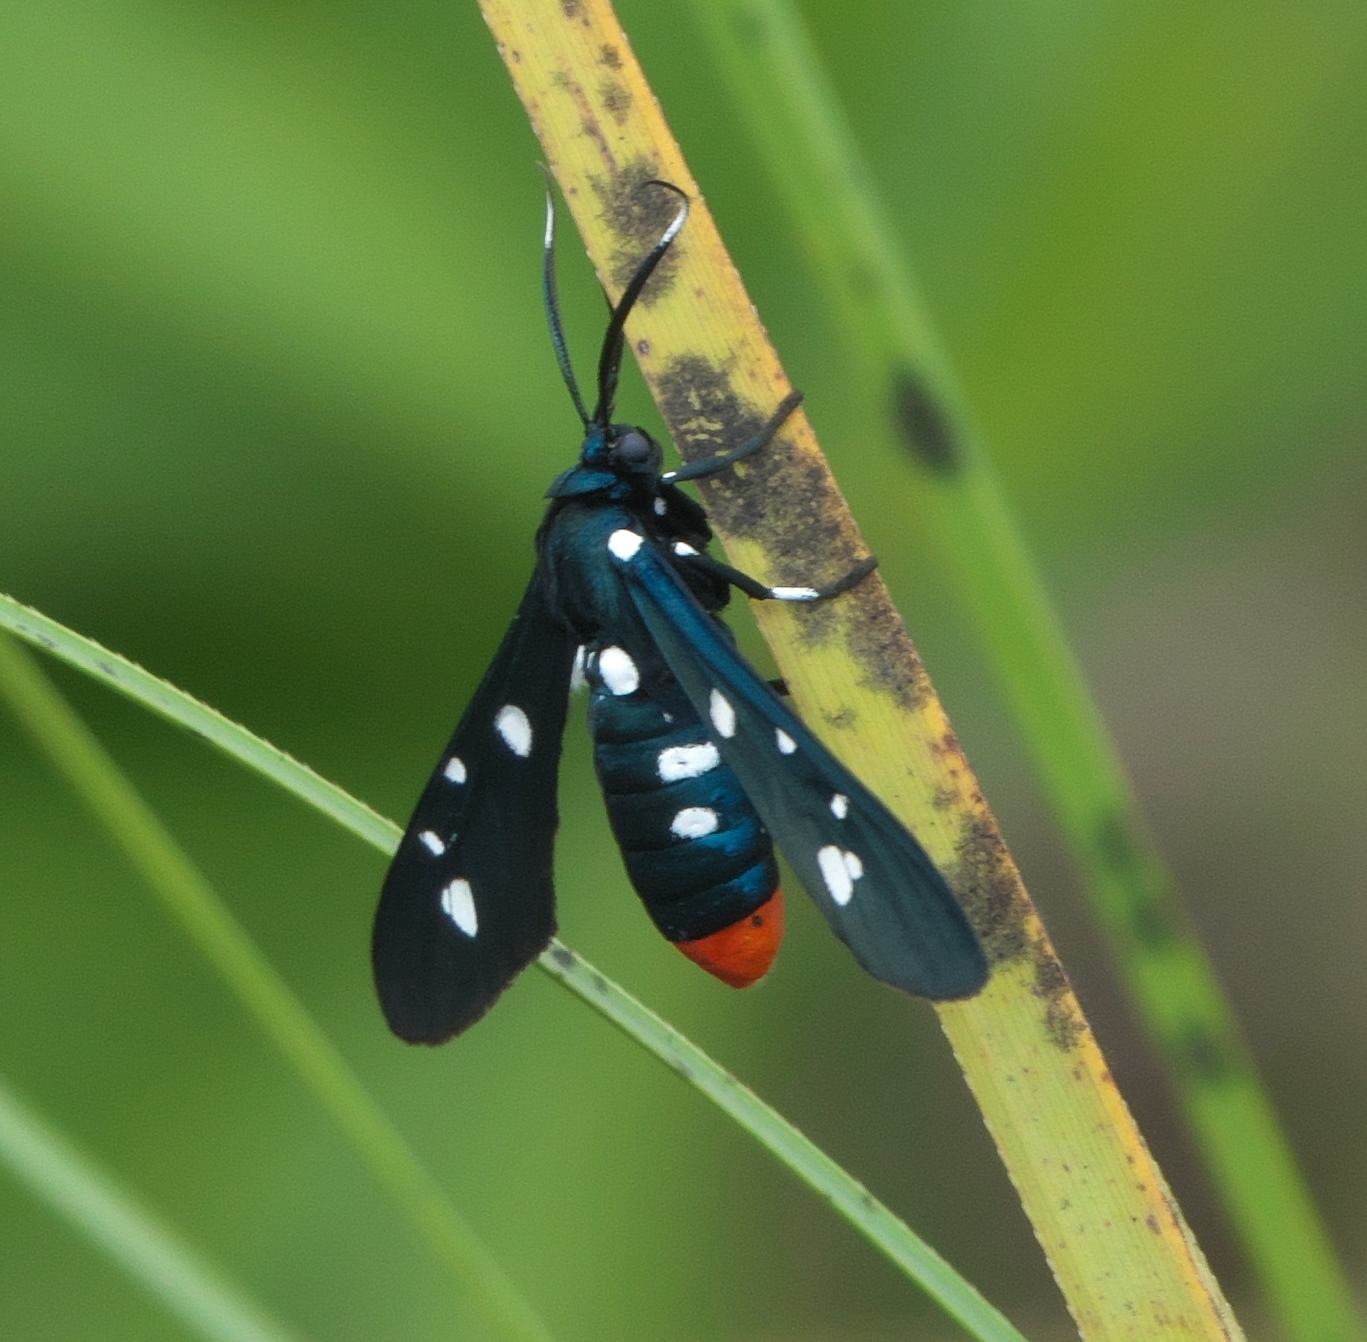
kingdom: Animalia
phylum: Arthropoda
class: Insecta
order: Lepidoptera
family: Erebidae
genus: Syntomeida
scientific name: Syntomeida epilais
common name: Polka-dot wasp moth
